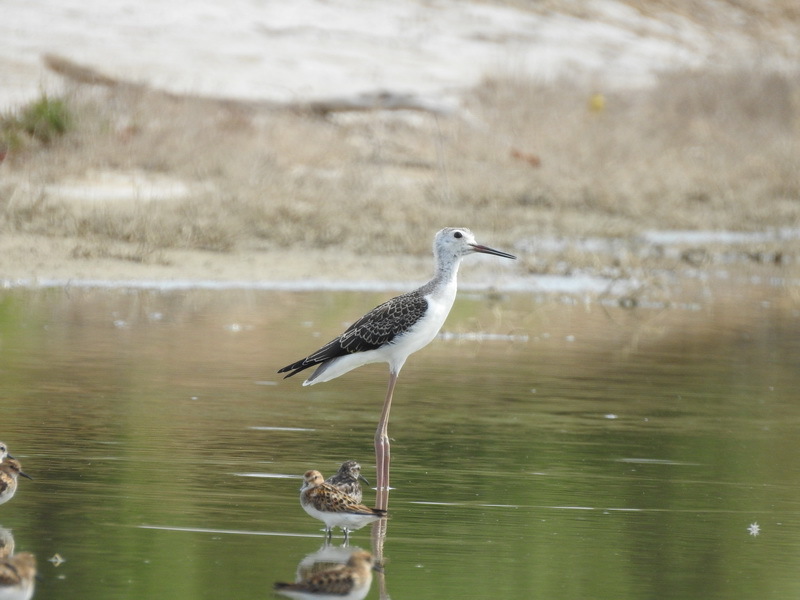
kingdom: Animalia
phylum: Chordata
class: Aves
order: Charadriiformes
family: Recurvirostridae
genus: Himantopus
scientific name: Himantopus himantopus
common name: Black-winged stilt
